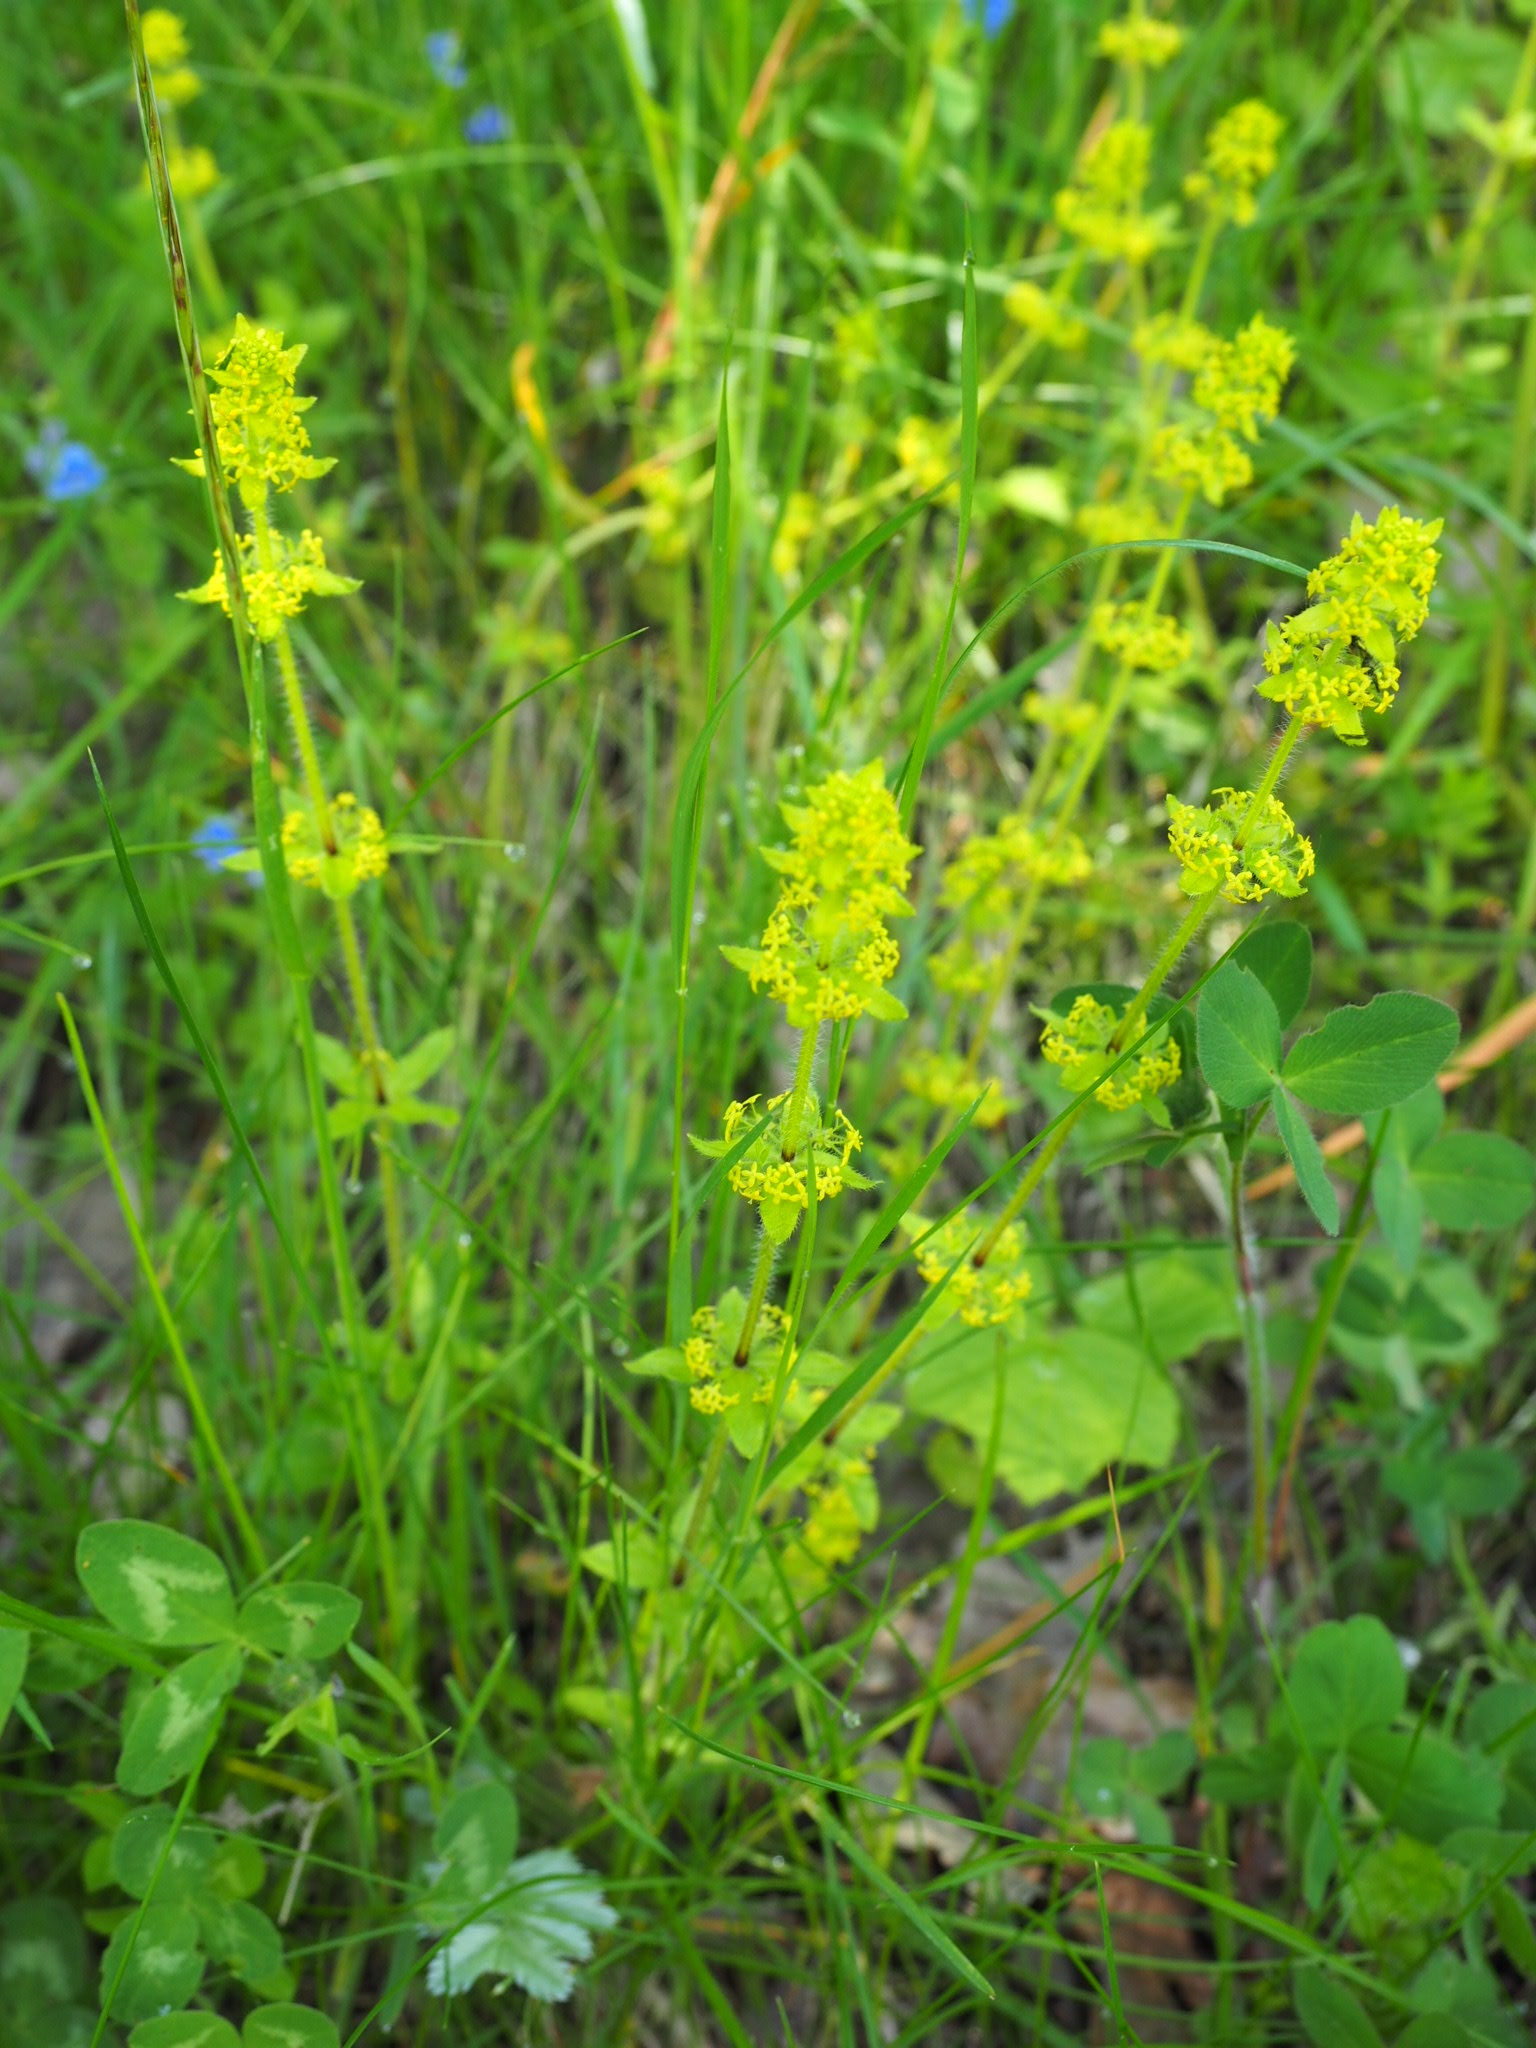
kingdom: Plantae
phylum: Tracheophyta
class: Magnoliopsida
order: Gentianales
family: Rubiaceae
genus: Cruciata
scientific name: Cruciata laevipes
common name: Crosswort
